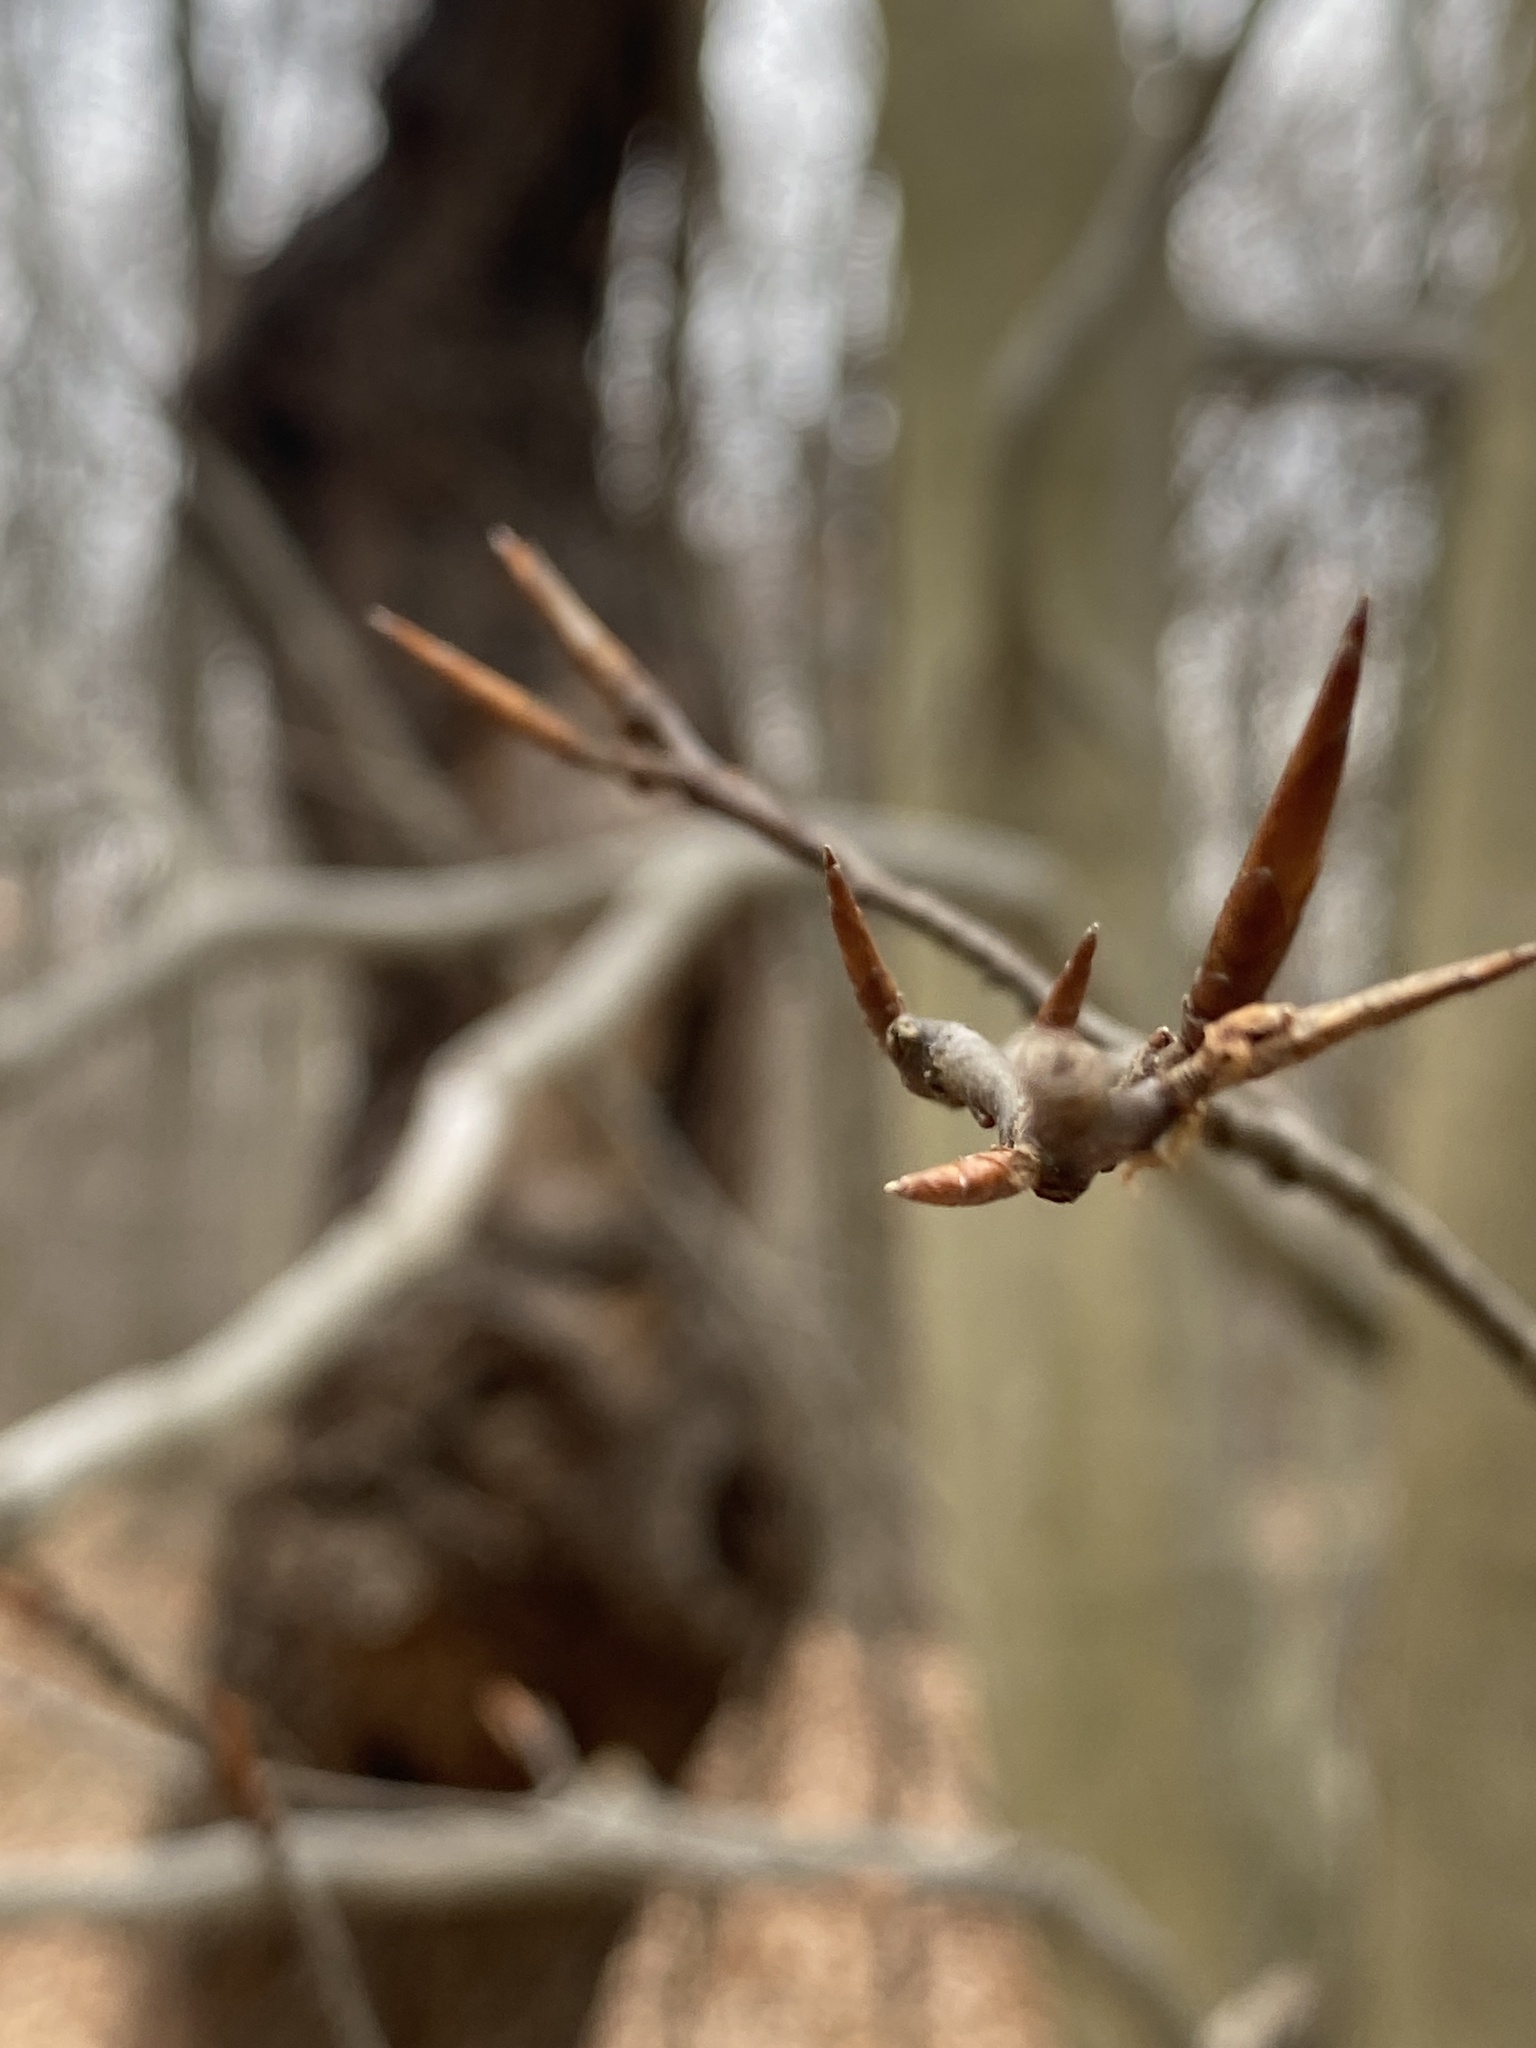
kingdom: Plantae
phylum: Tracheophyta
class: Magnoliopsida
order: Fagales
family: Fagaceae
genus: Fagus
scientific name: Fagus grandifolia
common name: American beech
